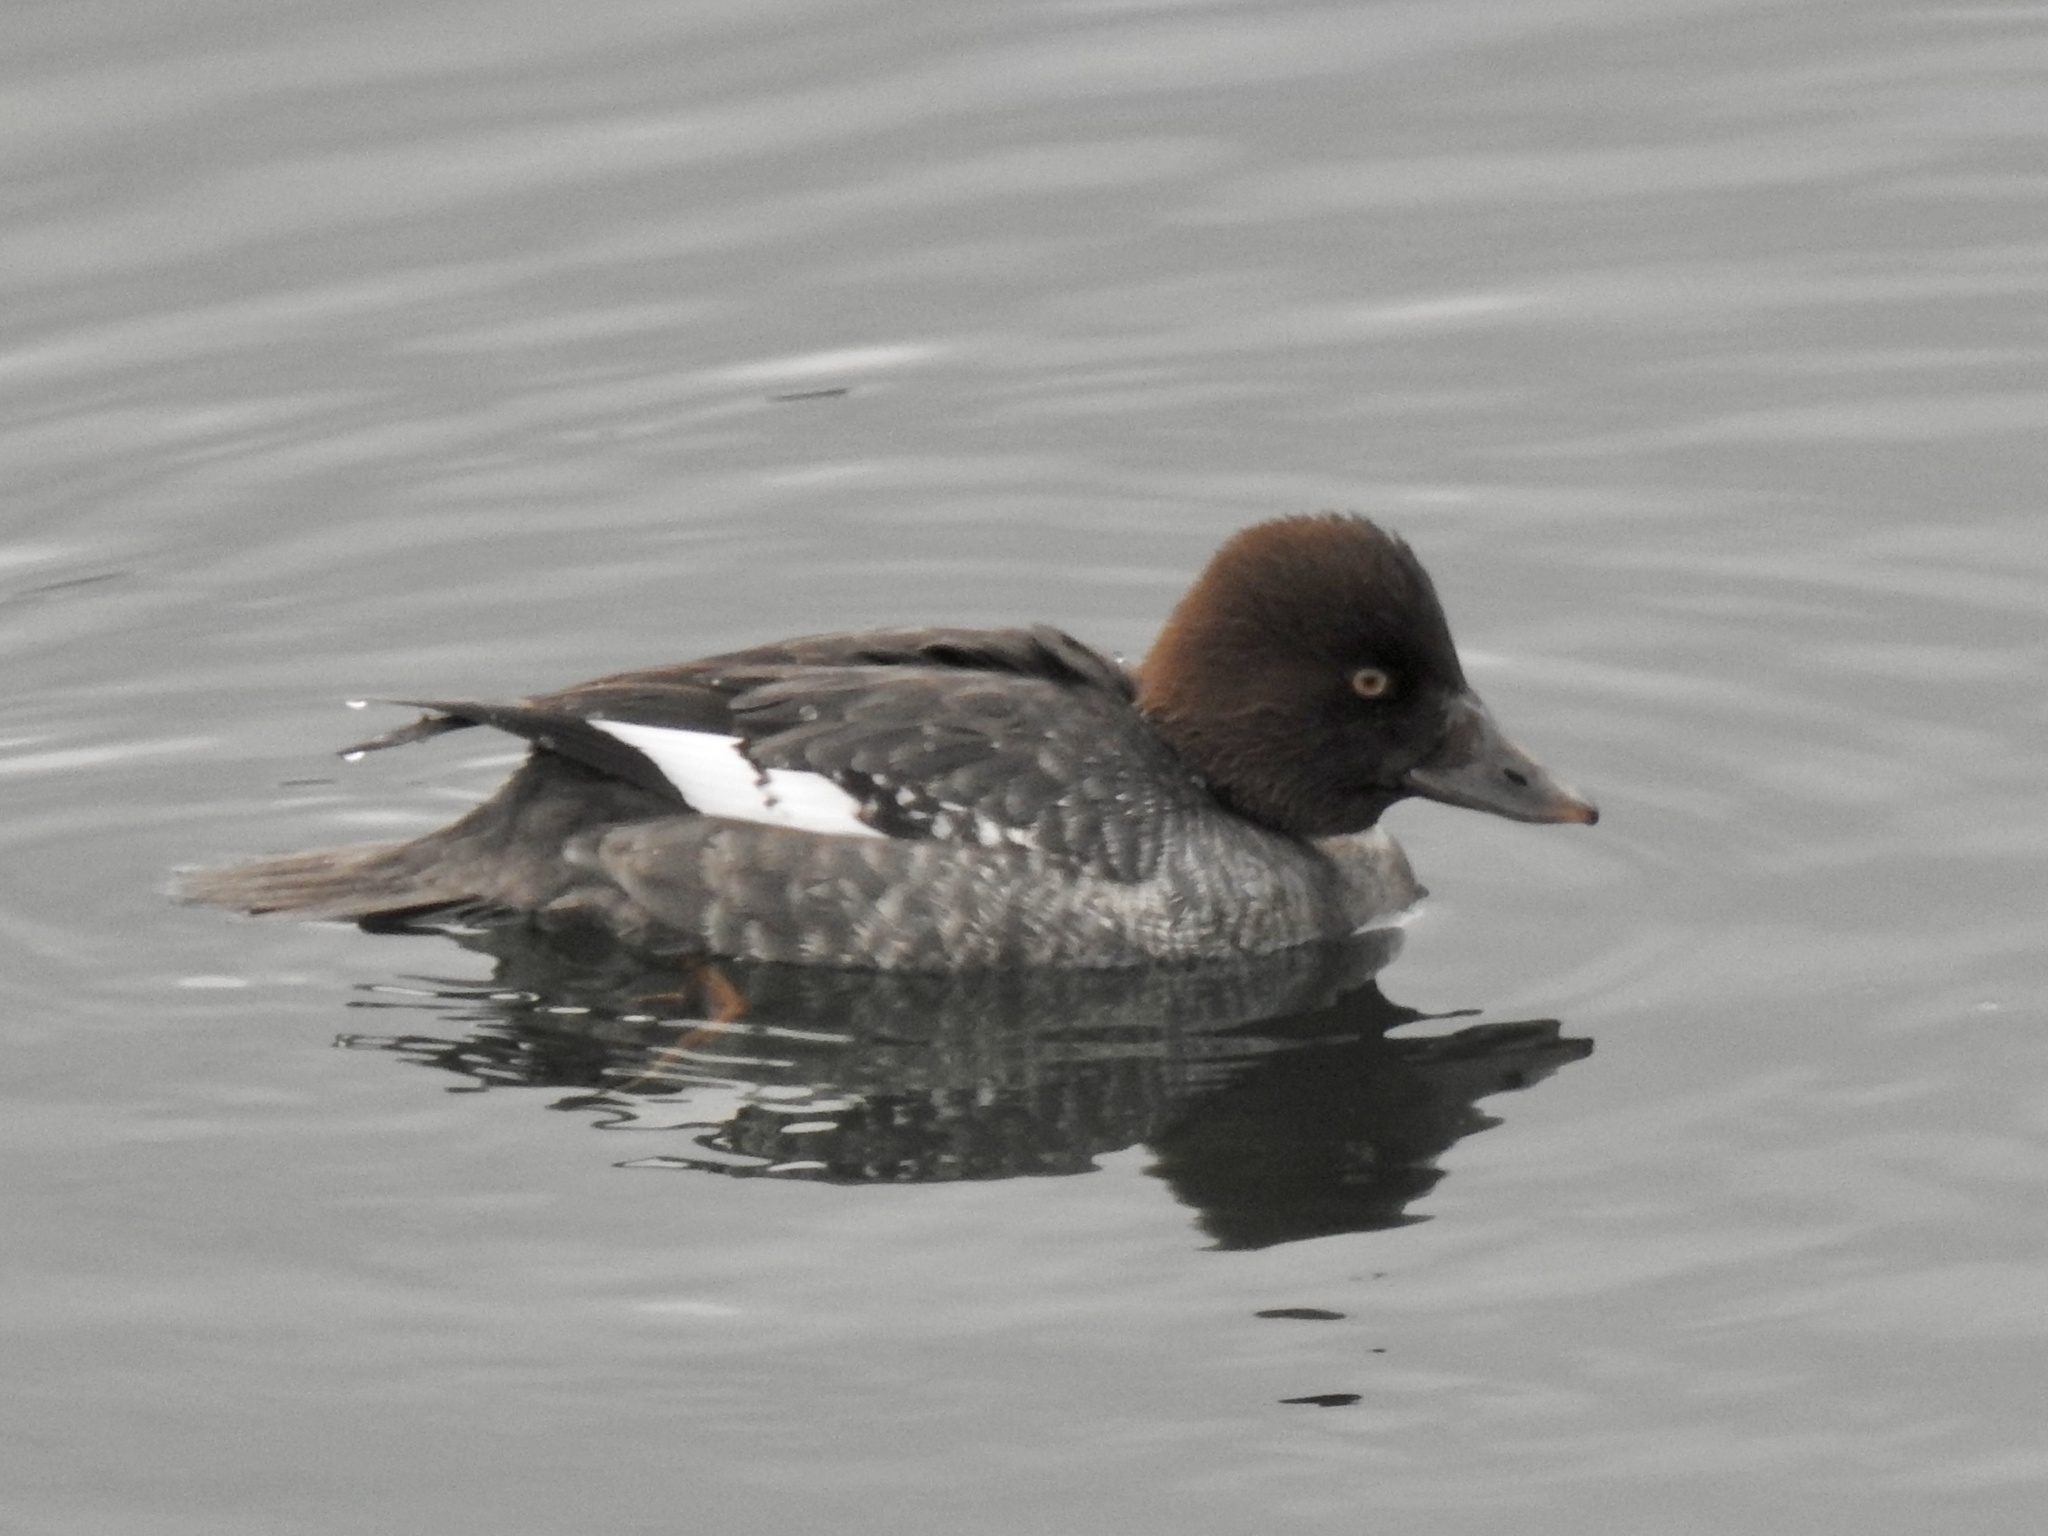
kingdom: Animalia
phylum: Chordata
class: Aves
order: Anseriformes
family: Anatidae
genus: Bucephala
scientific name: Bucephala clangula
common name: Common goldeneye
